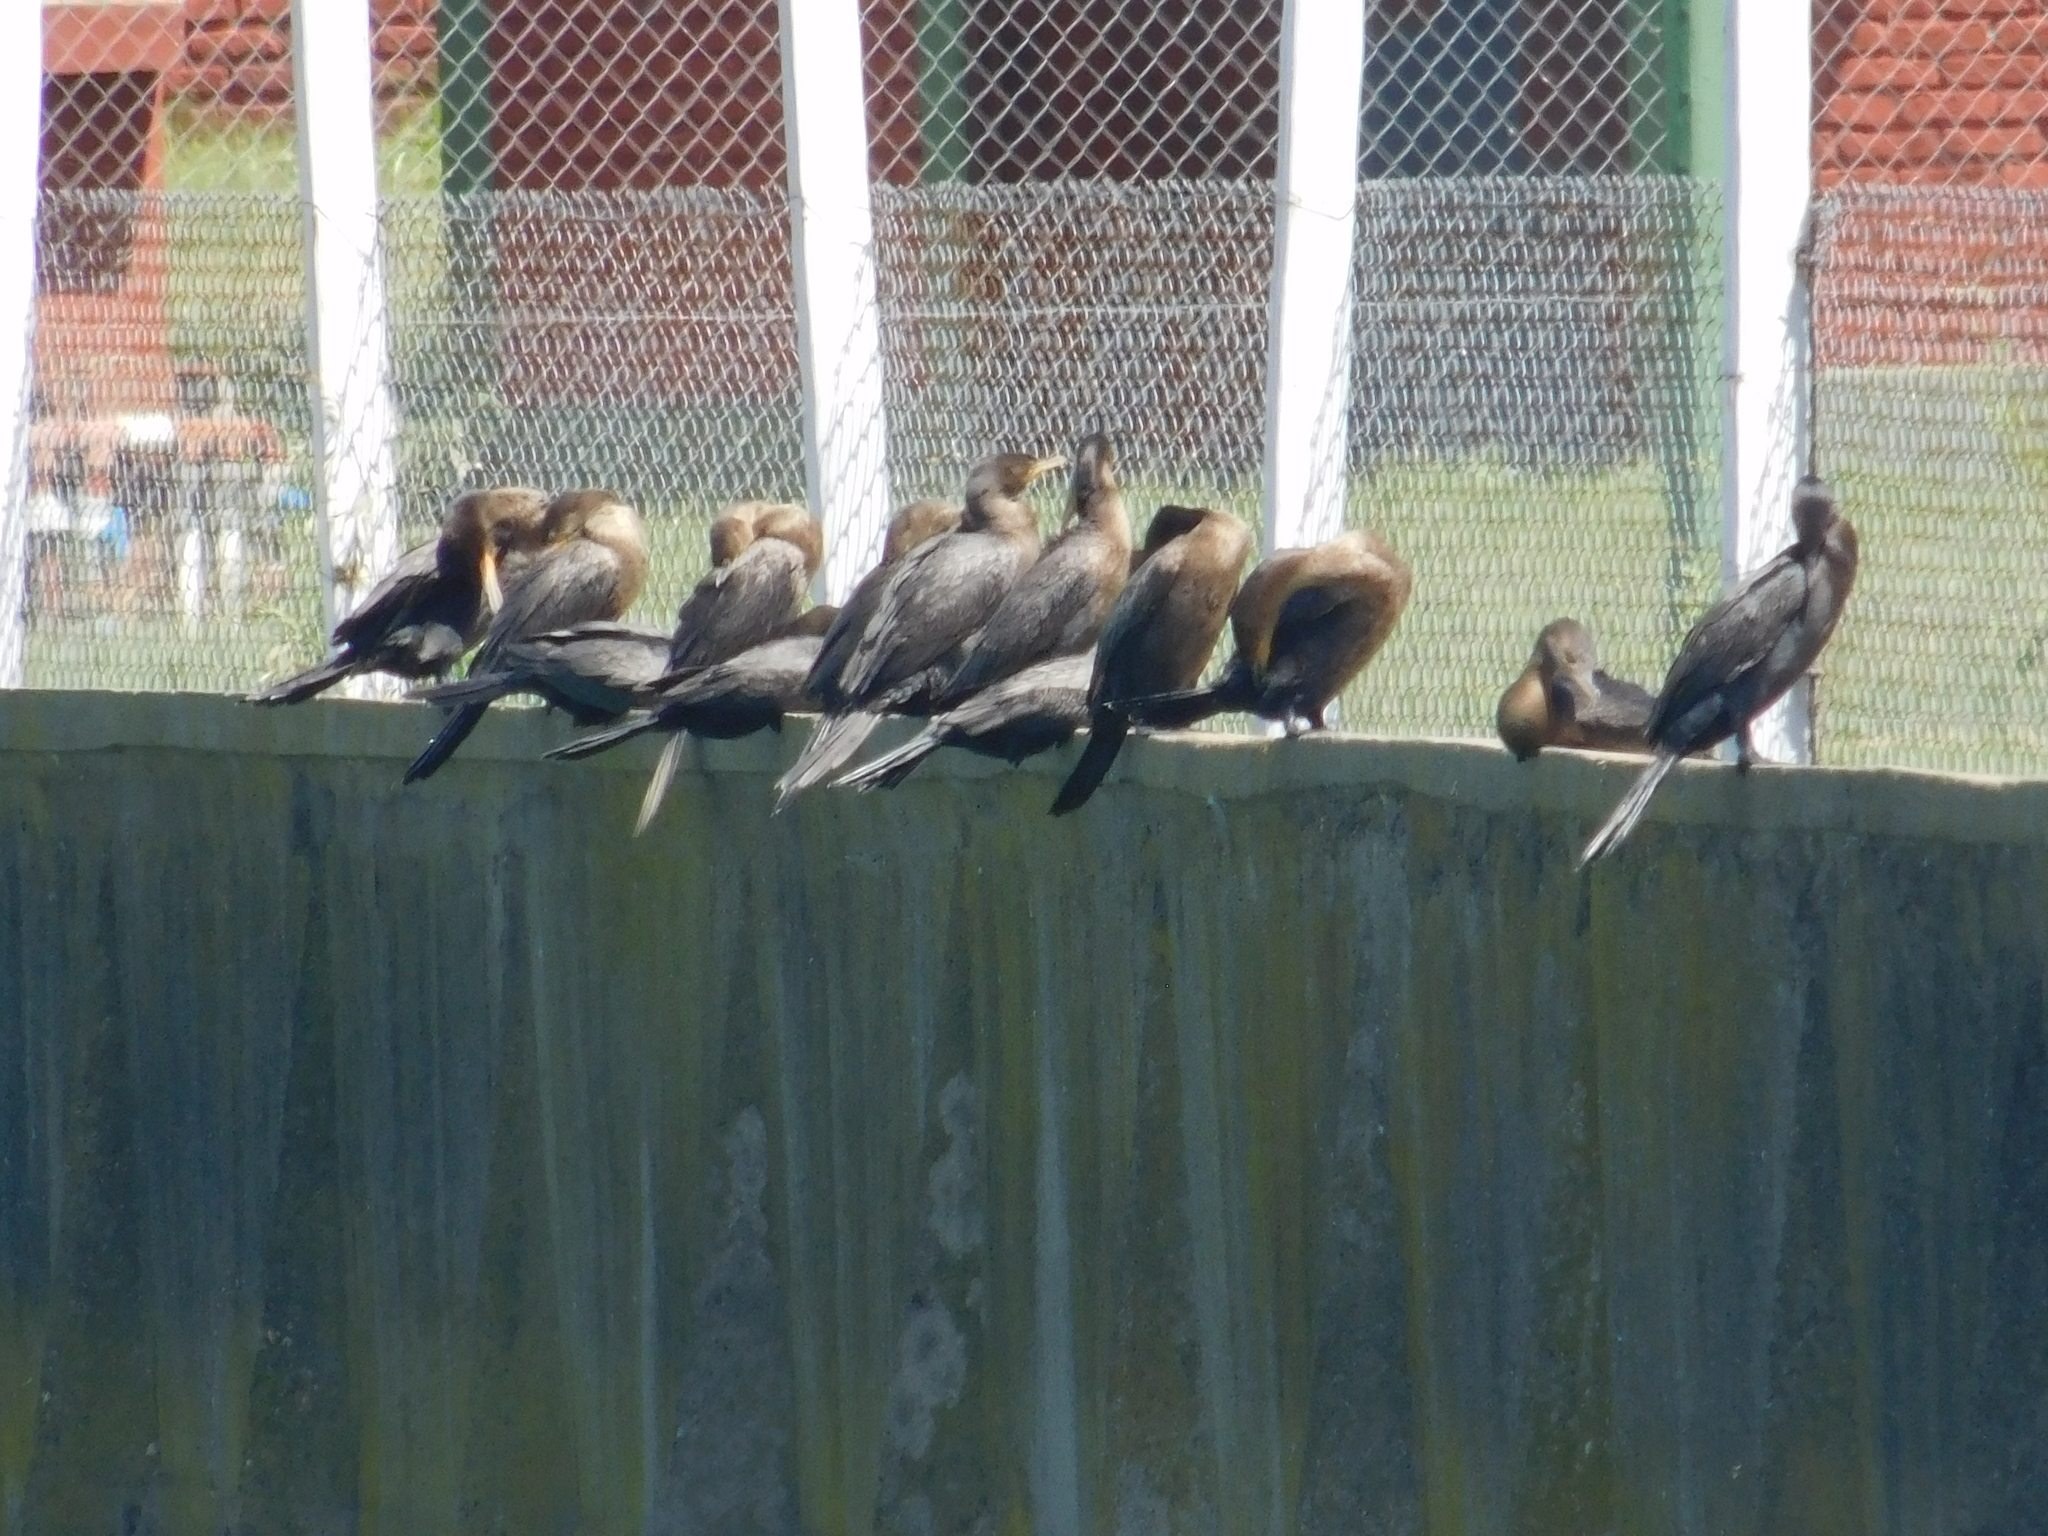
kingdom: Animalia
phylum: Chordata
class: Aves
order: Suliformes
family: Phalacrocoracidae
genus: Phalacrocorax
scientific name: Phalacrocorax brasilianus
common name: Neotropic cormorant
